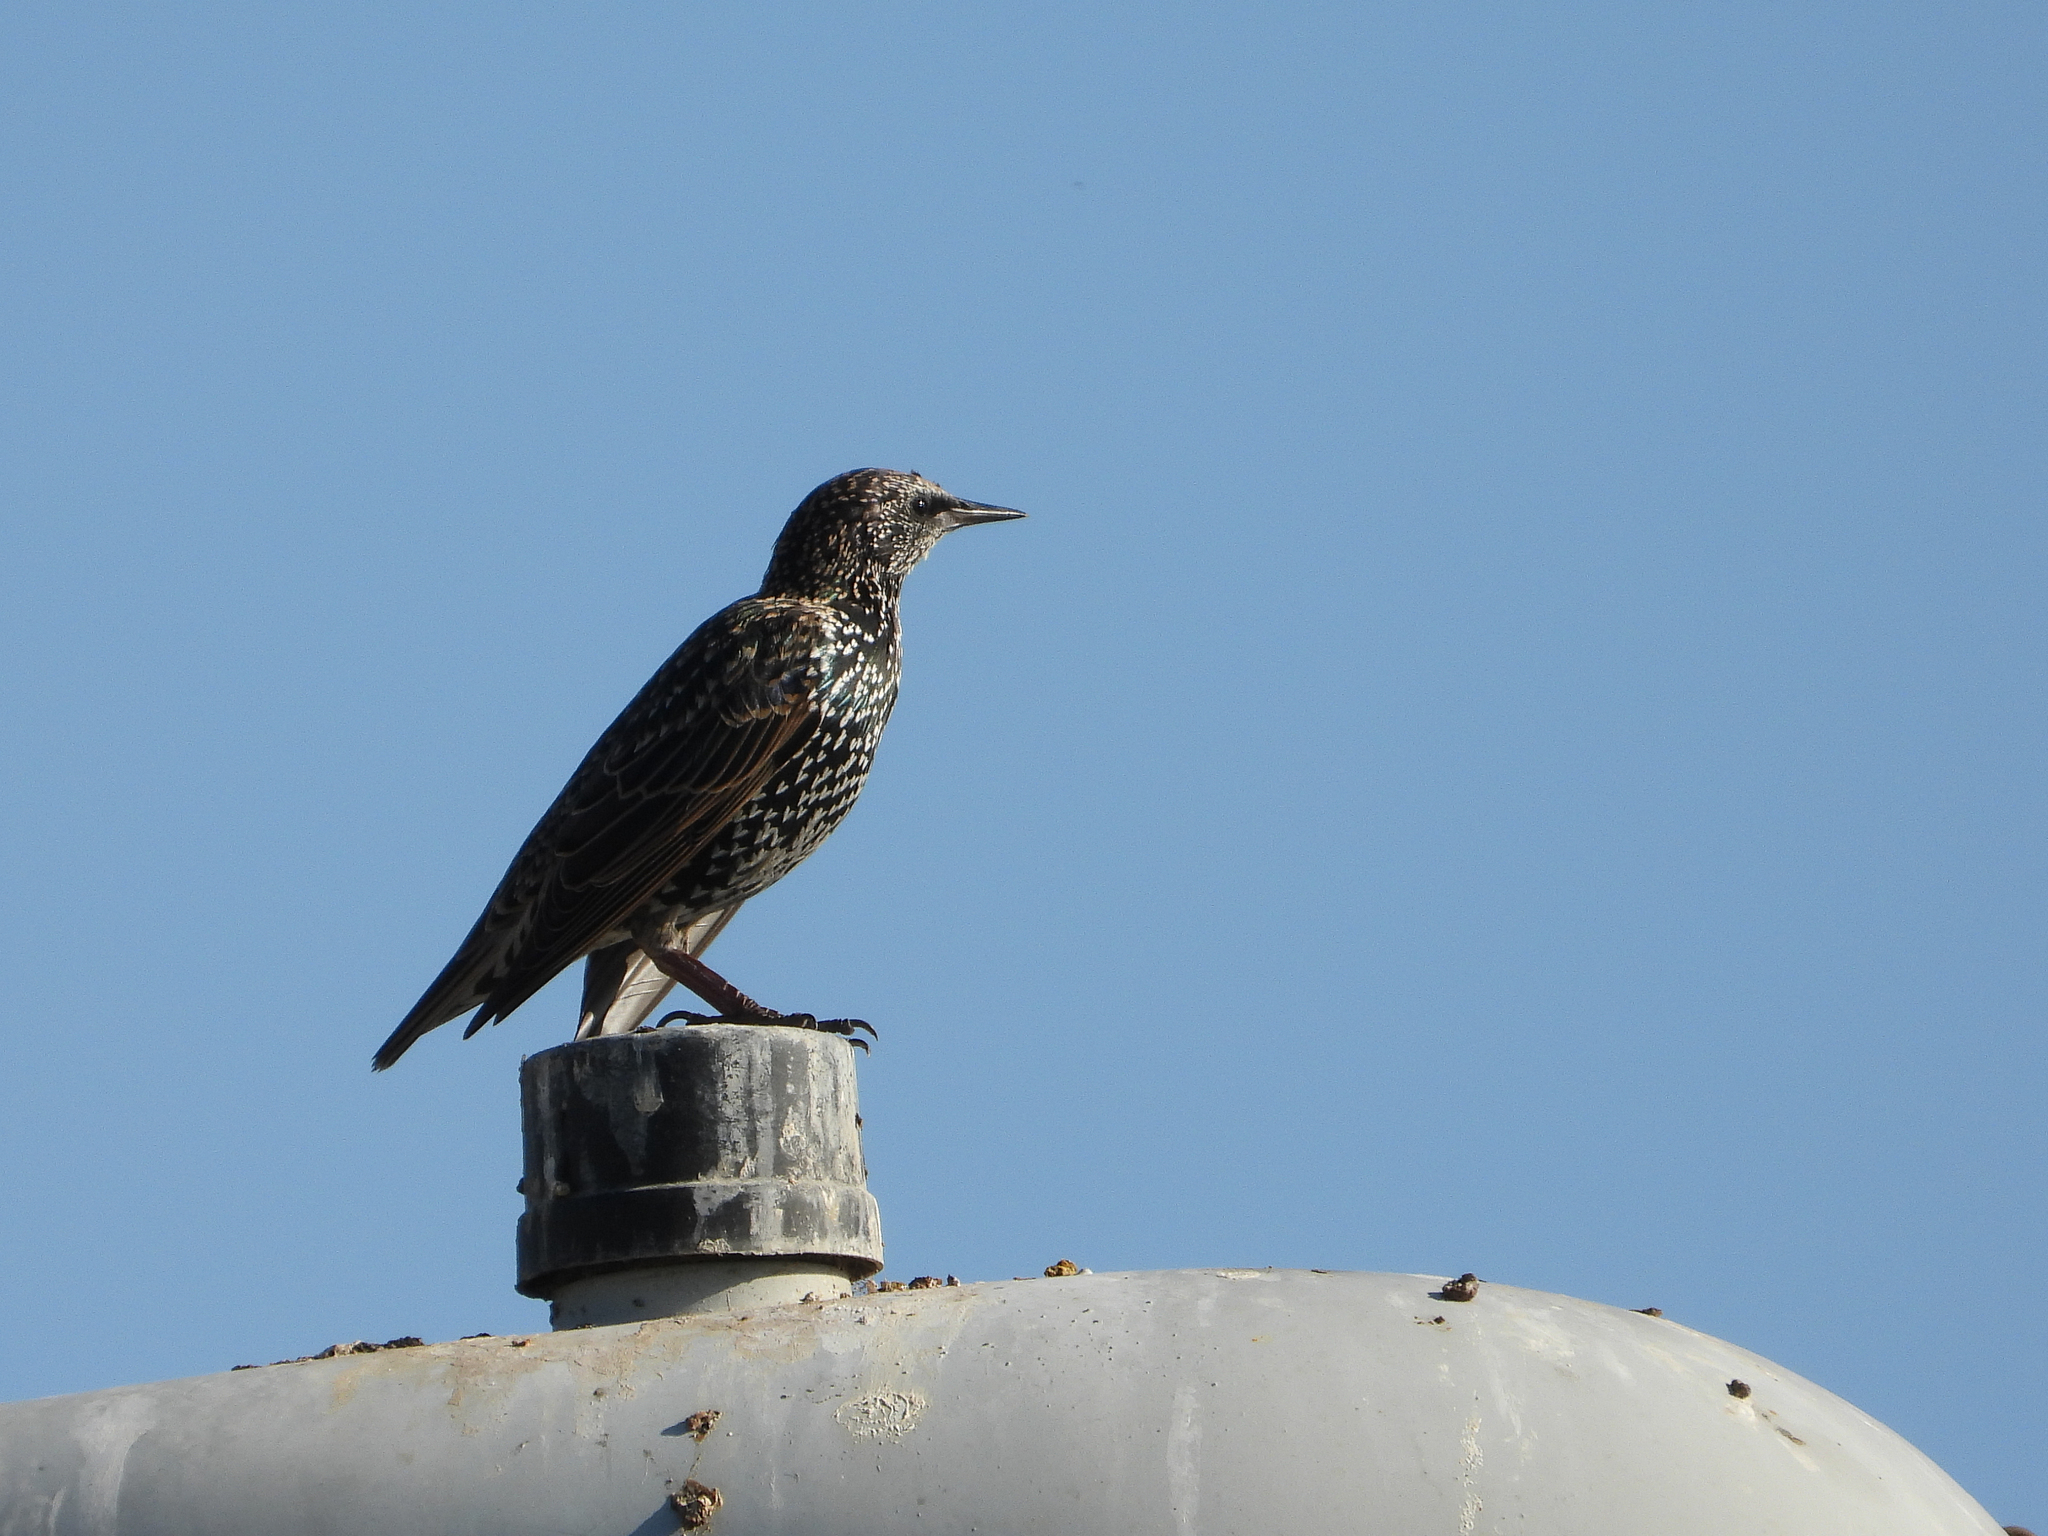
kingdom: Animalia
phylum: Chordata
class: Aves
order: Passeriformes
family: Sturnidae
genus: Sturnus
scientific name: Sturnus vulgaris
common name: Common starling
